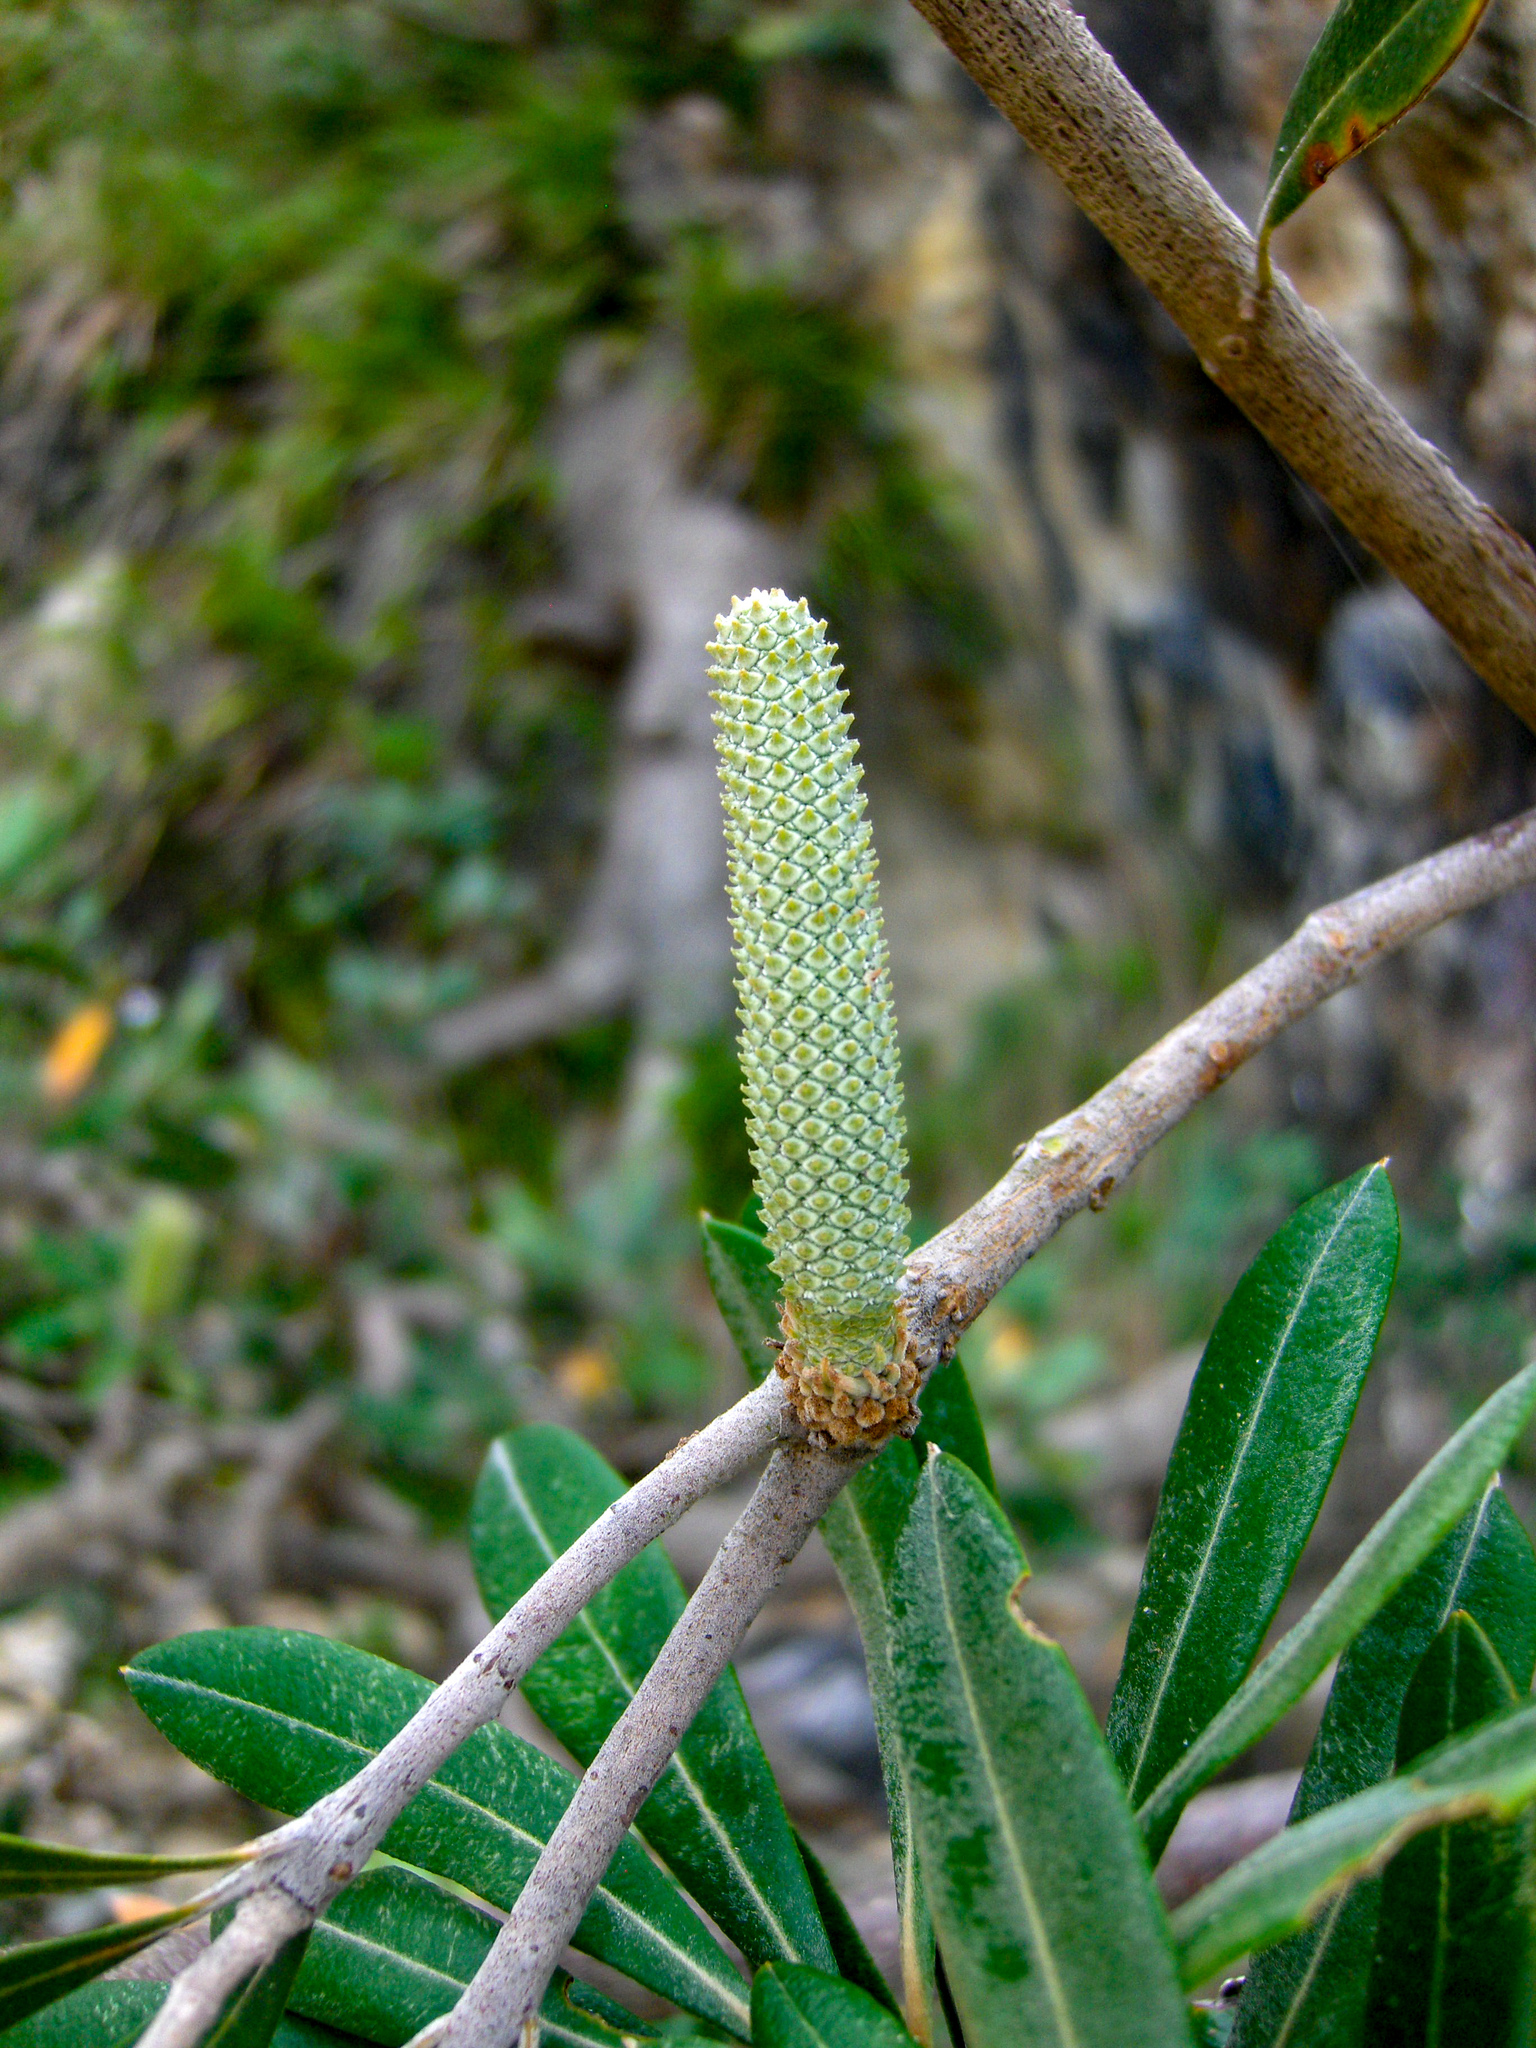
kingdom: Plantae
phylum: Tracheophyta
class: Magnoliopsida
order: Proteales
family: Proteaceae
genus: Banksia
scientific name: Banksia integrifolia
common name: White-honeysuckle
